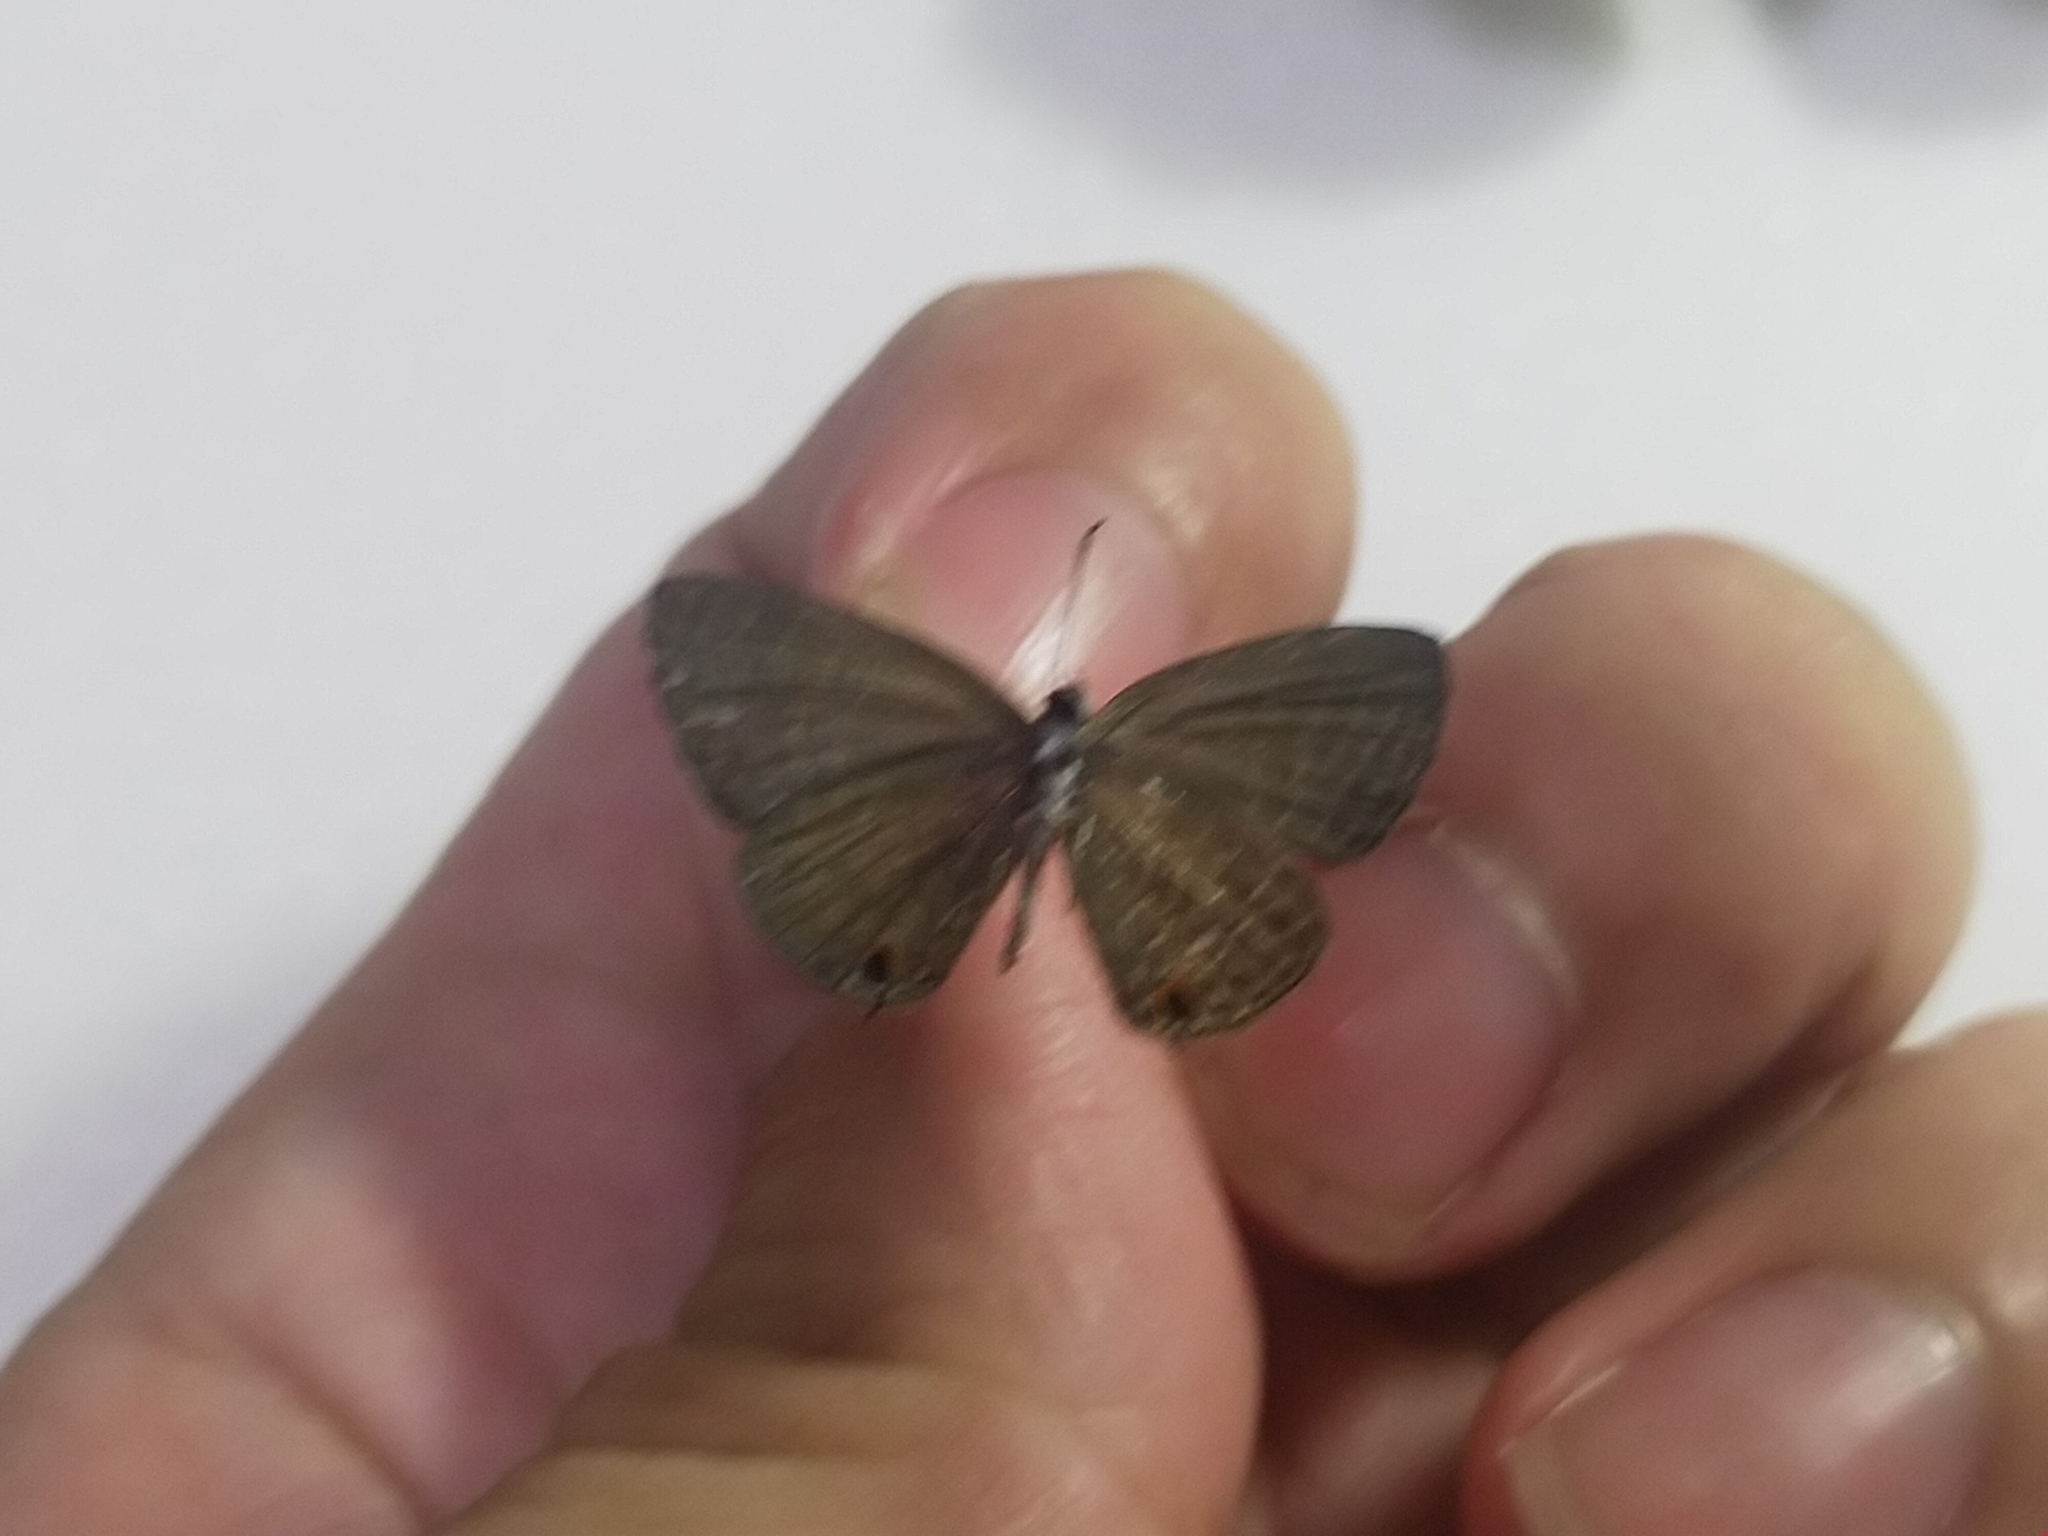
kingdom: Animalia
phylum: Arthropoda
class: Insecta
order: Lepidoptera
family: Lycaenidae
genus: Jamides
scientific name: Jamides bochus
